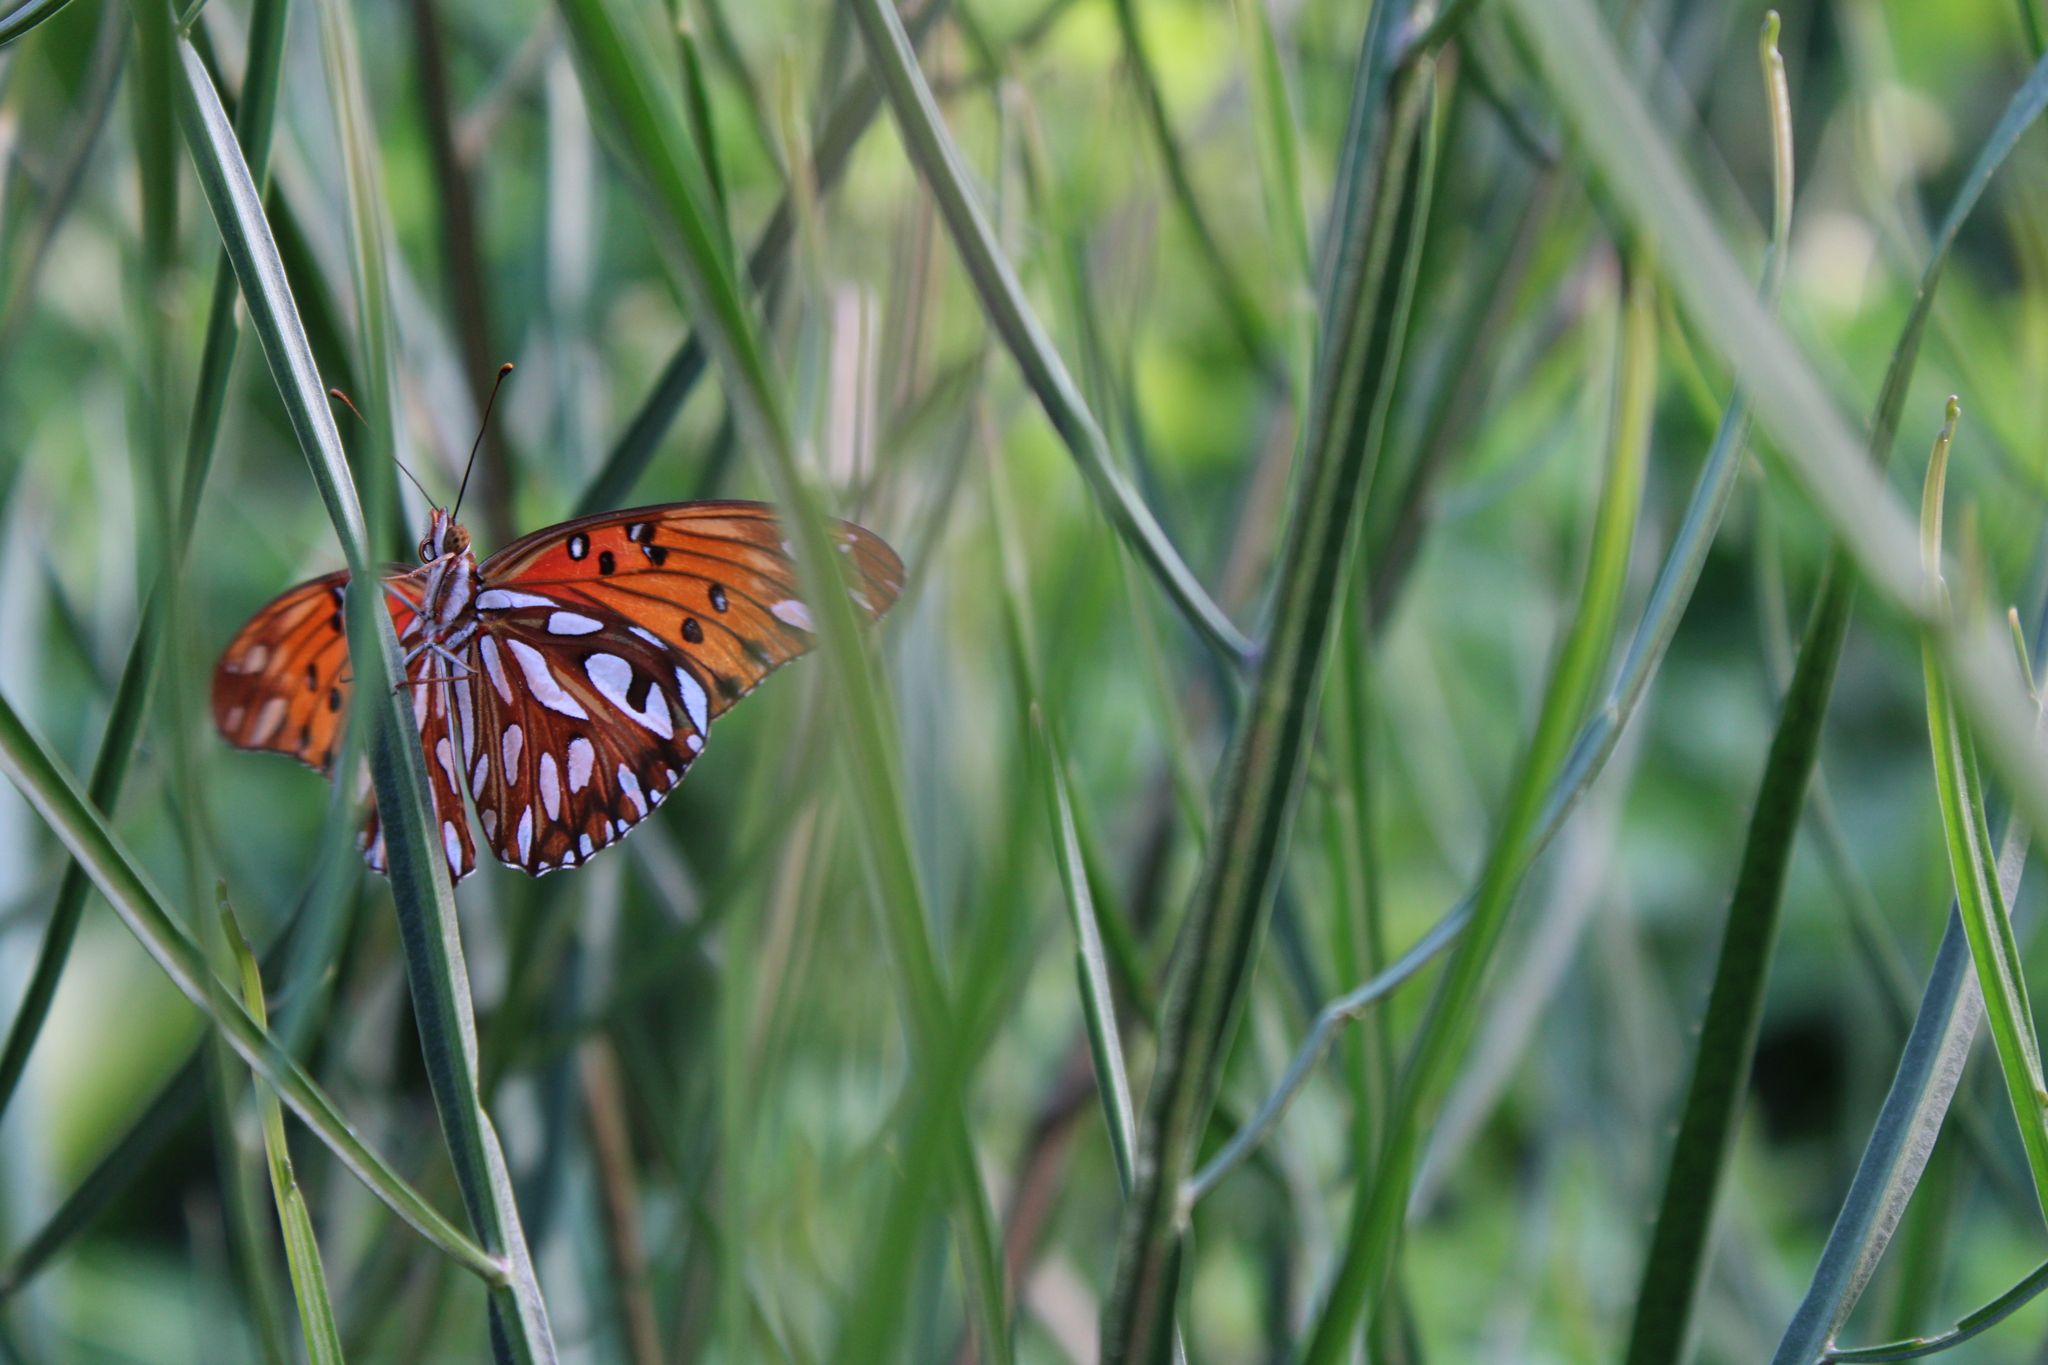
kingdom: Animalia
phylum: Arthropoda
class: Insecta
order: Lepidoptera
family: Nymphalidae
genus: Dione
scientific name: Dione vanillae
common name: Gulf fritillary
